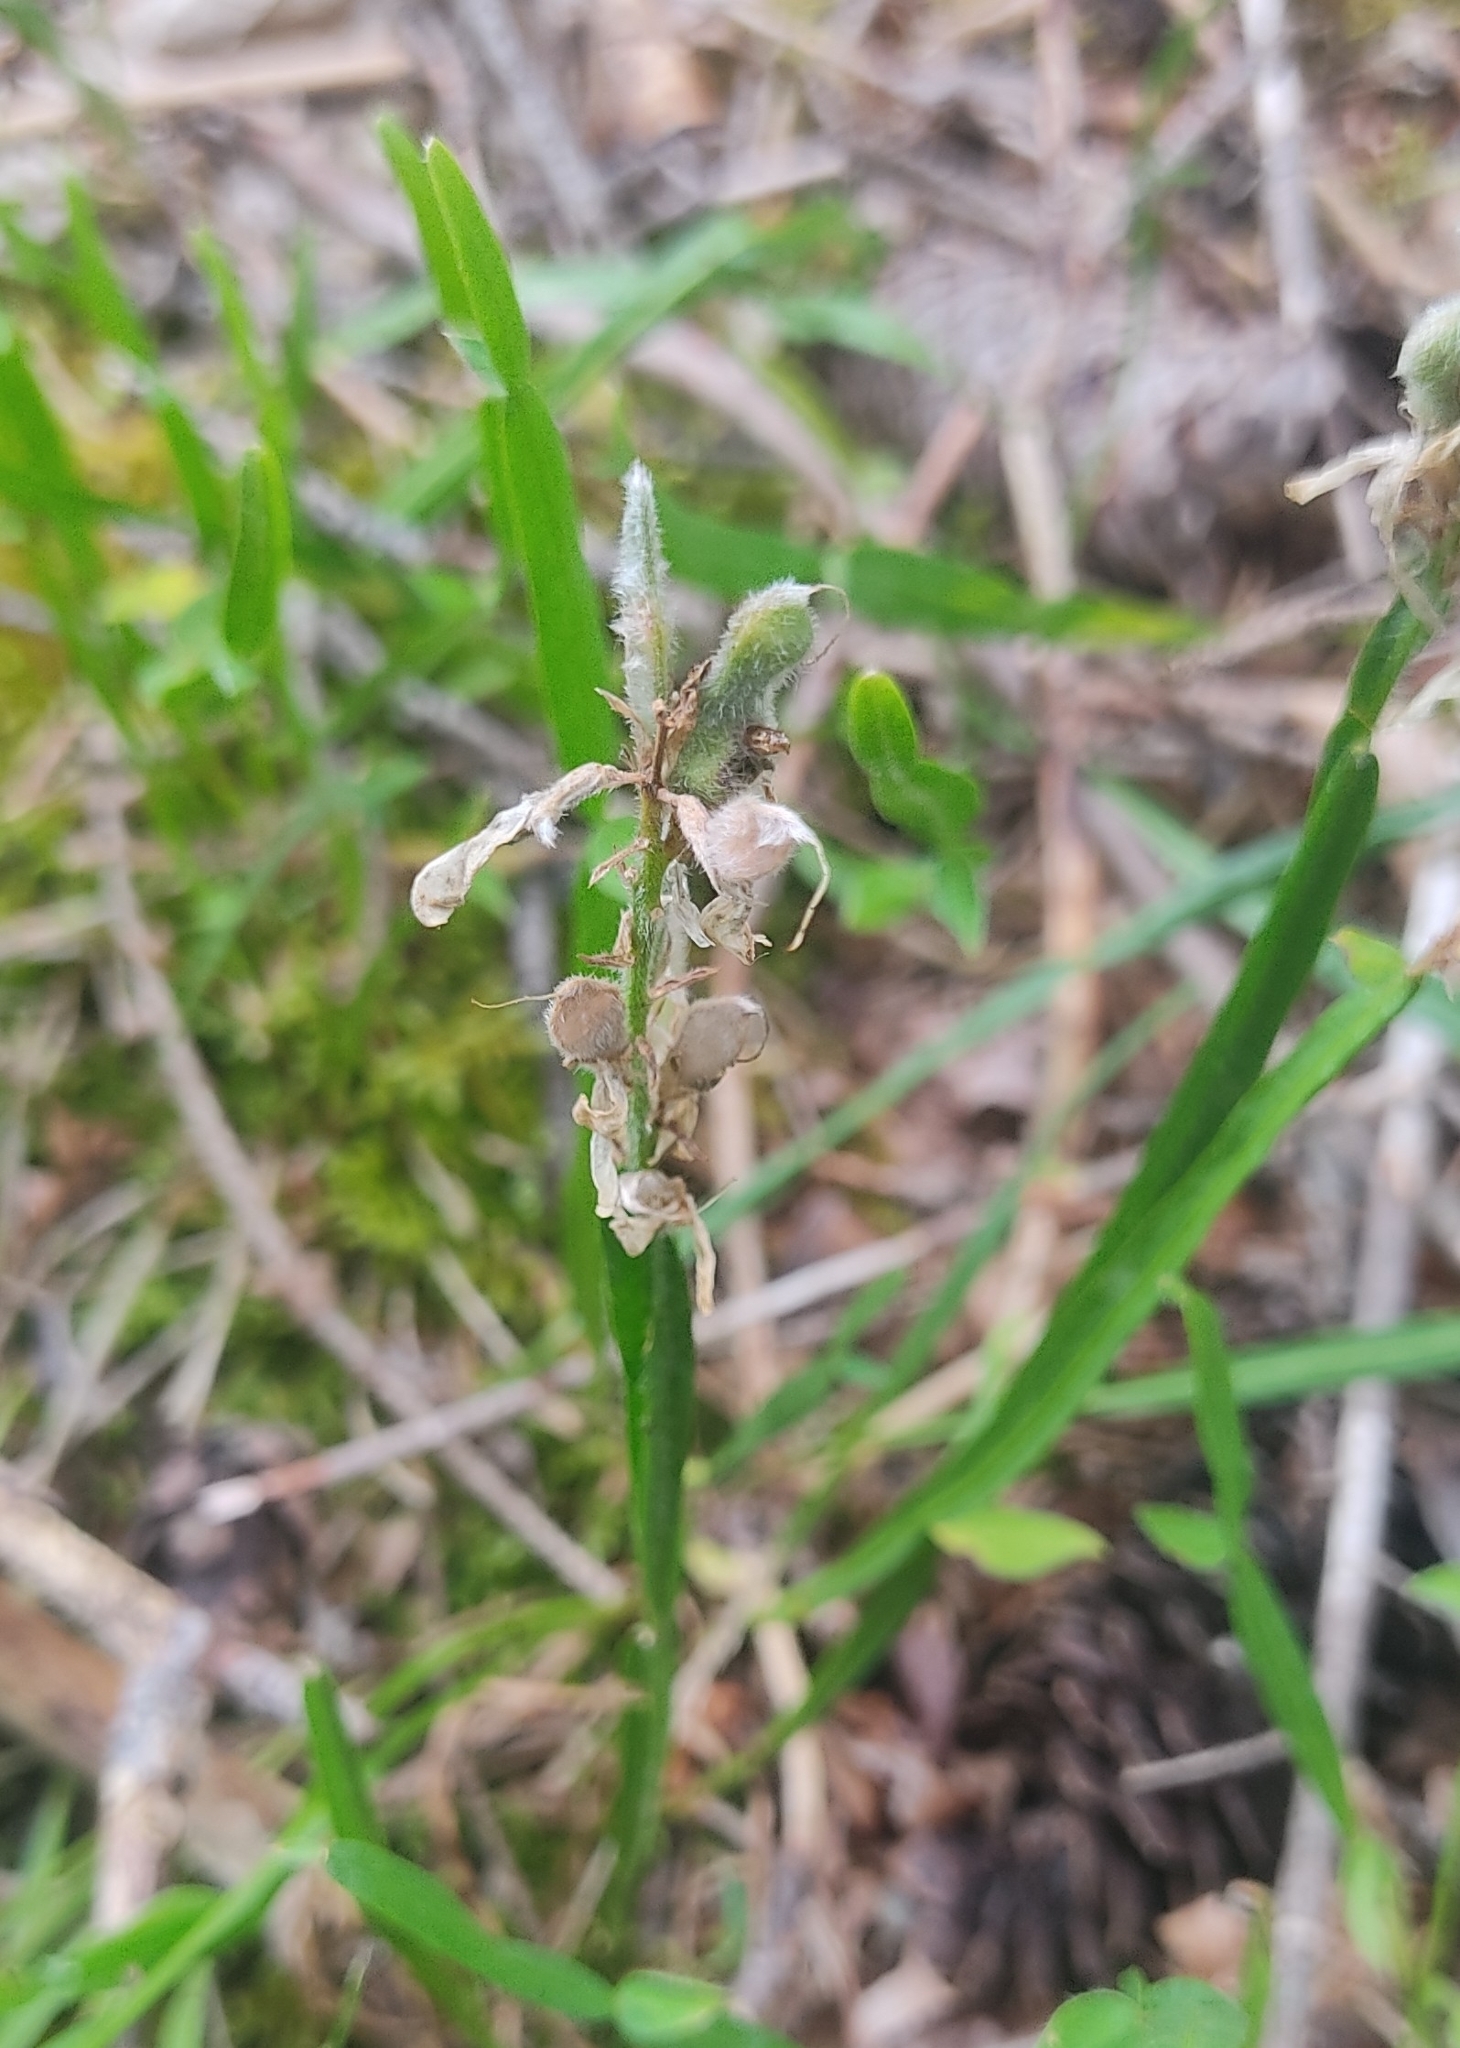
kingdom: Plantae
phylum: Tracheophyta
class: Magnoliopsida
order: Fabales
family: Fabaceae
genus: Genista
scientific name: Genista sagittalis
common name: Winged greenweed
